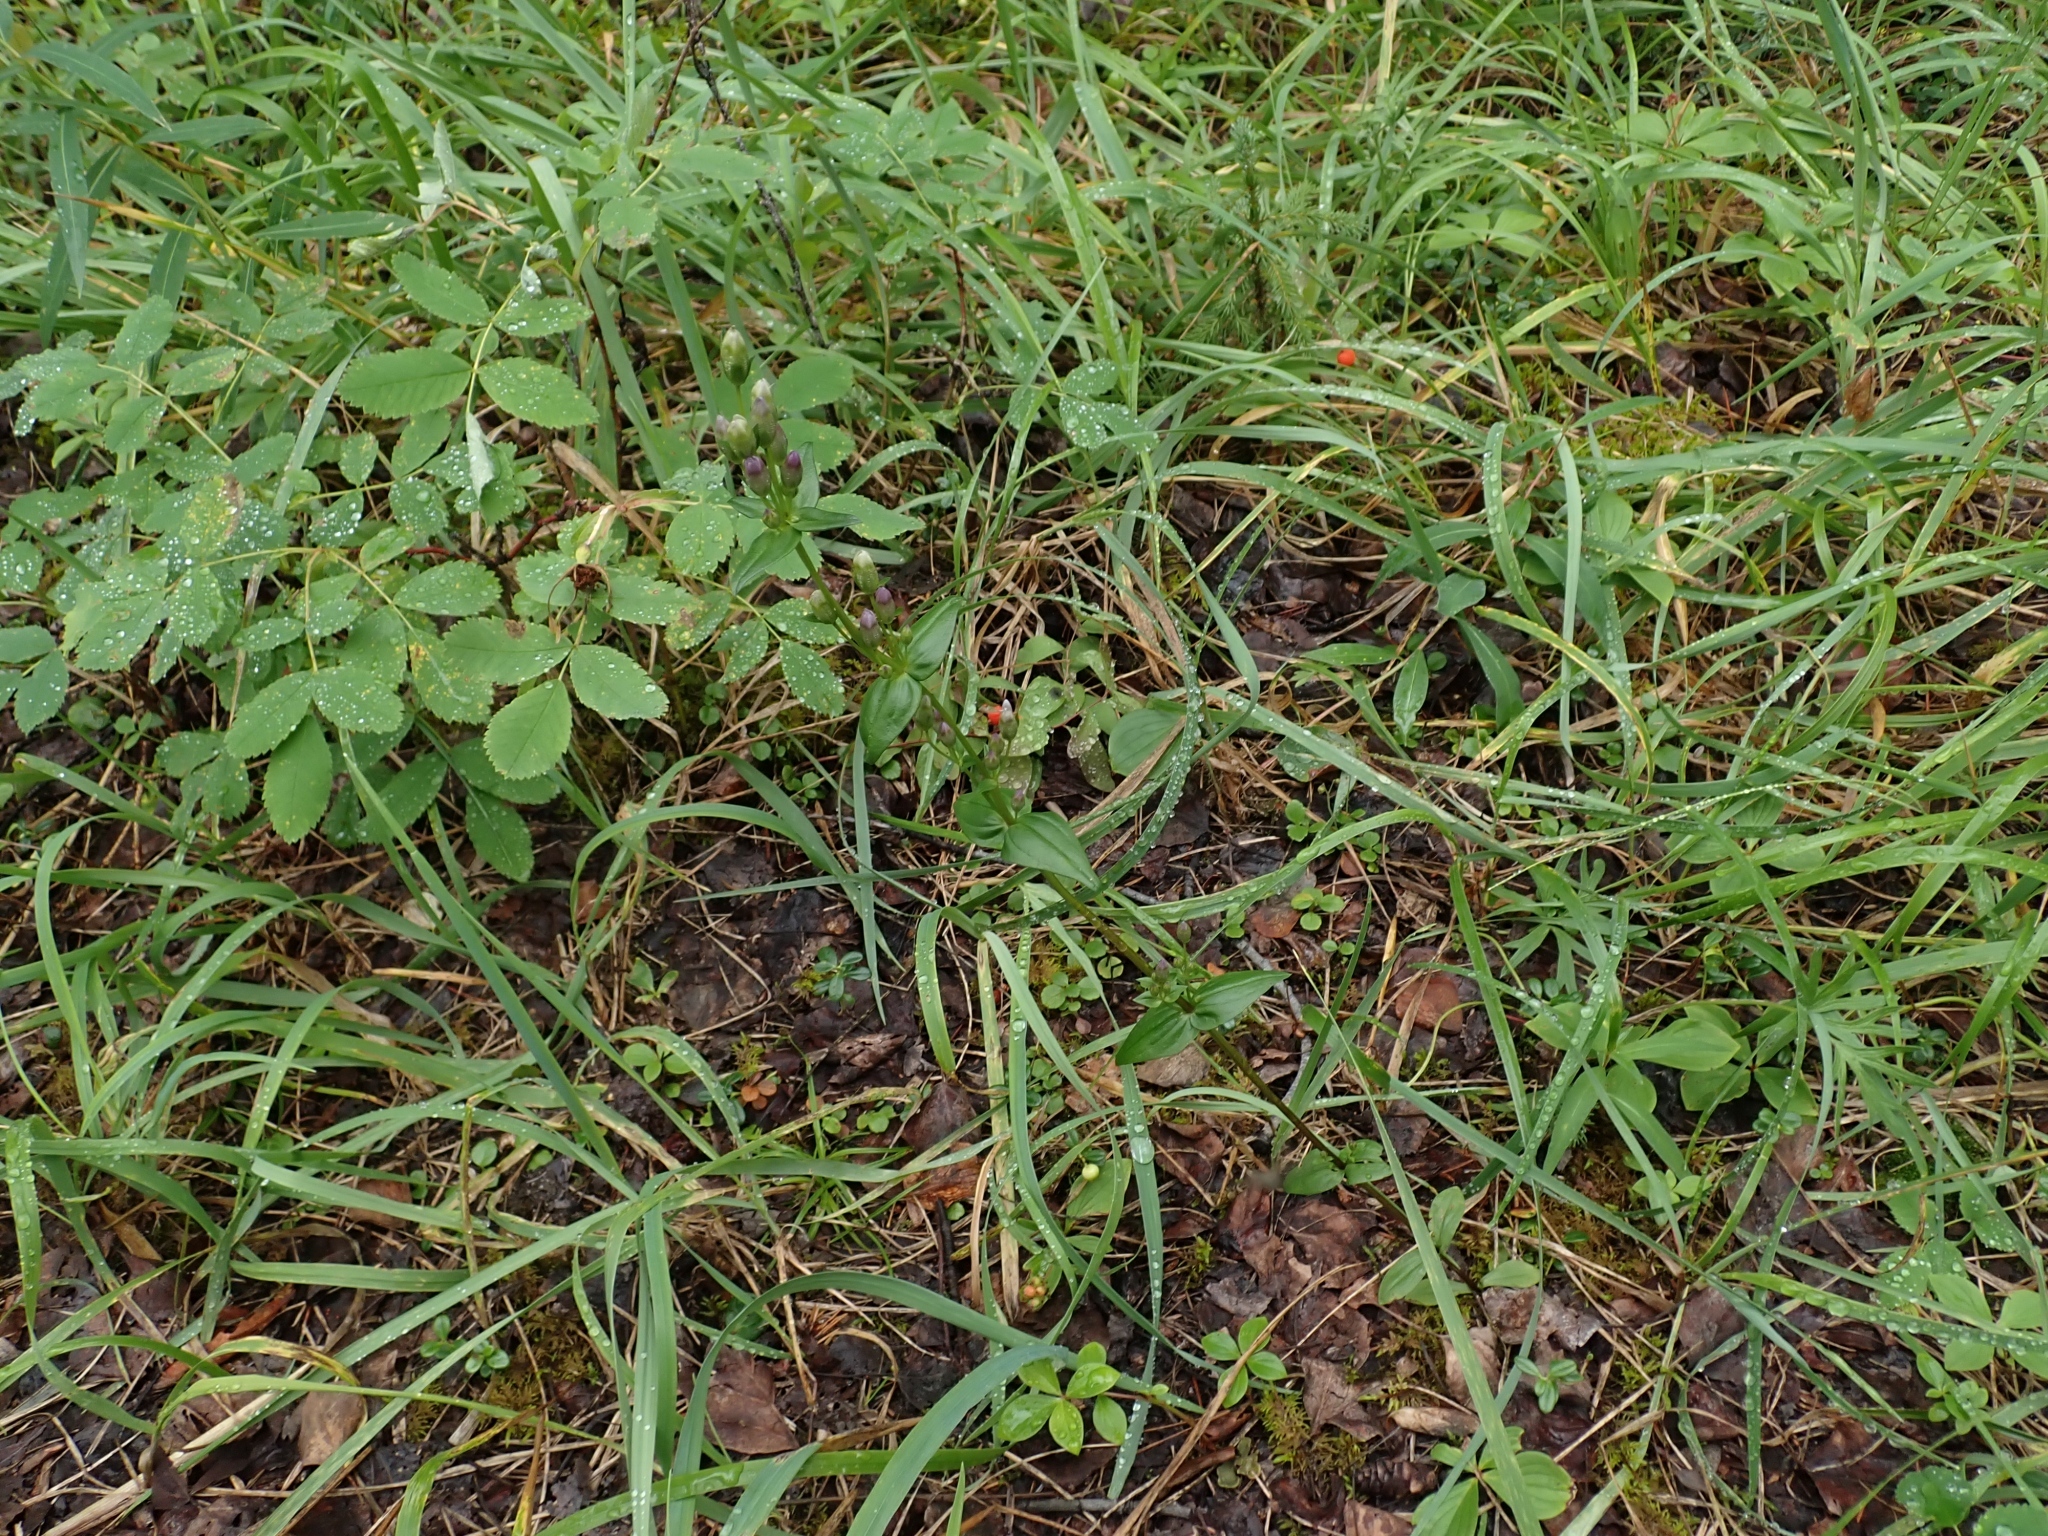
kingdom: Plantae
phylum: Tracheophyta
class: Magnoliopsida
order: Gentianales
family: Gentianaceae
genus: Gentianella
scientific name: Gentianella amarella
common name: Autumn gentian
